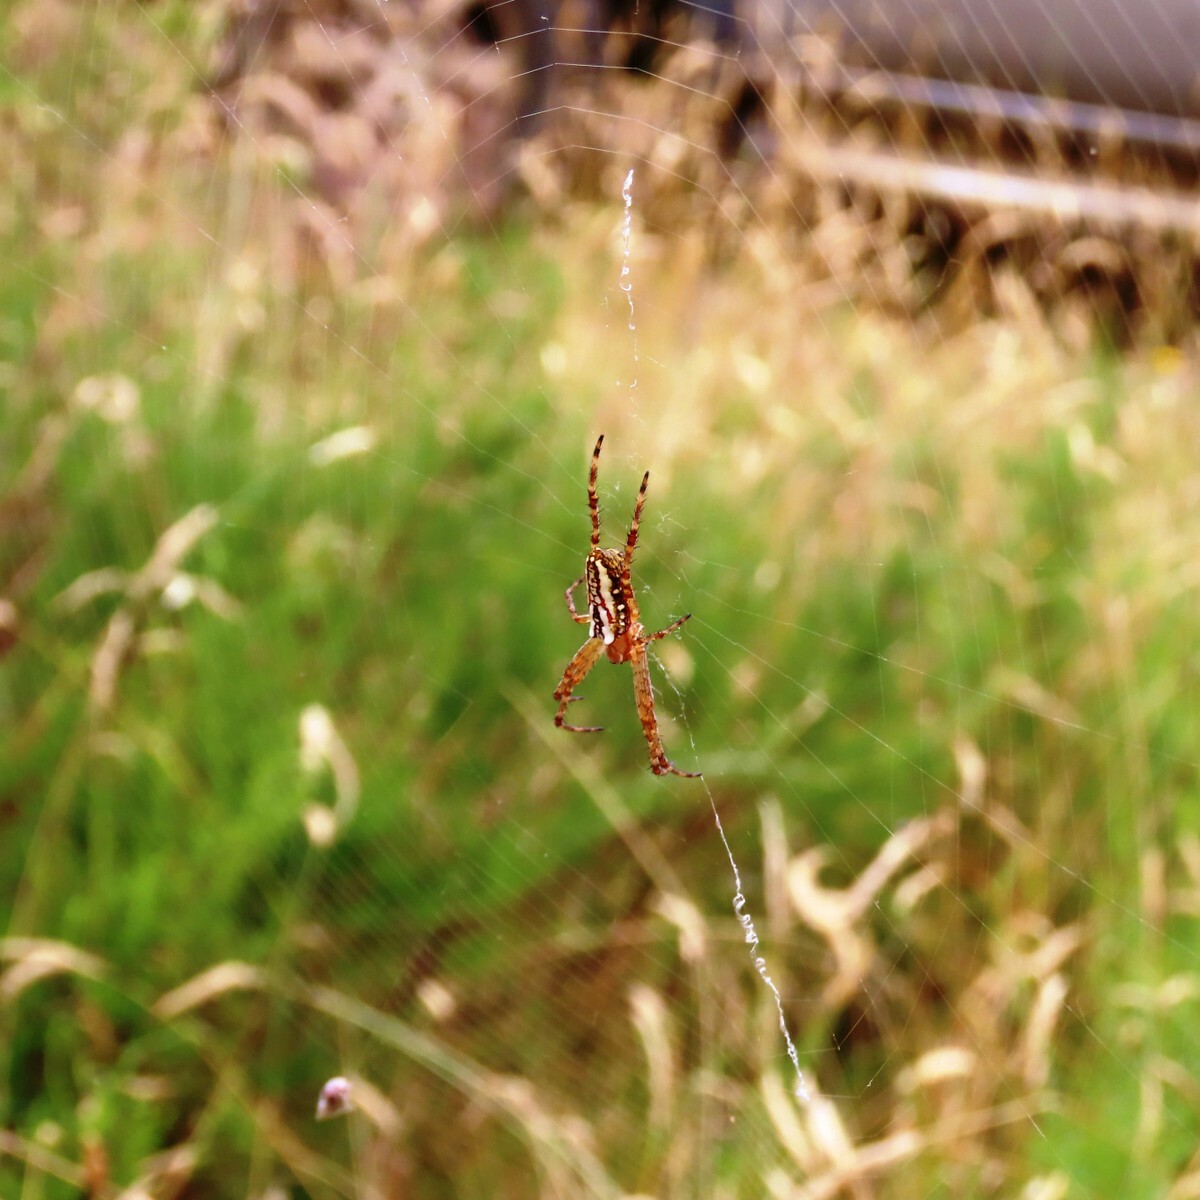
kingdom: Animalia
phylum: Arthropoda
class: Arachnida
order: Araneae
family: Araneidae
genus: Plebs
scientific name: Plebs bradleyi
